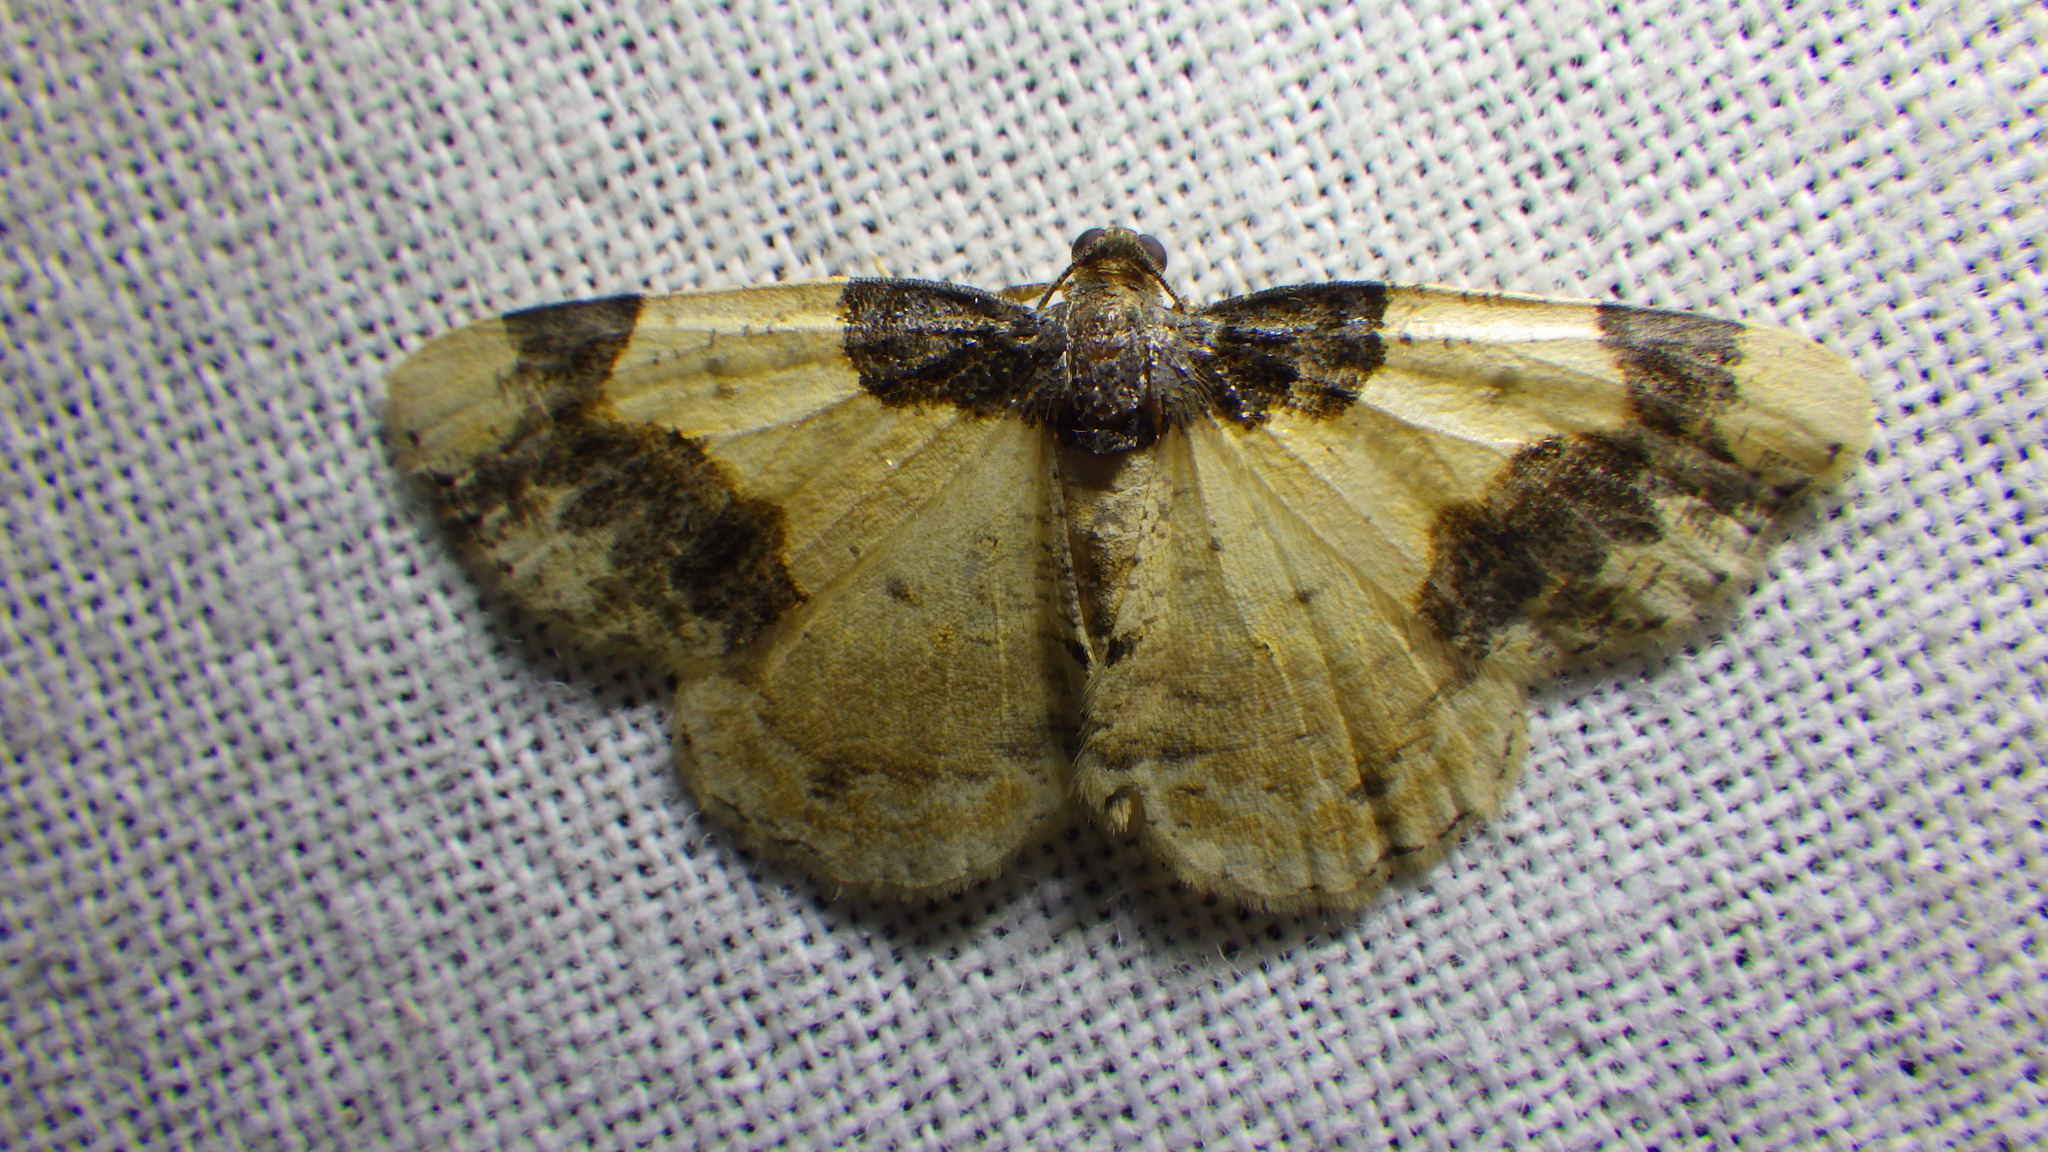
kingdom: Animalia
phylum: Arthropoda
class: Insecta
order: Lepidoptera
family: Geometridae
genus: Ligdia
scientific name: Ligdia adustata
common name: Scorched carpet
